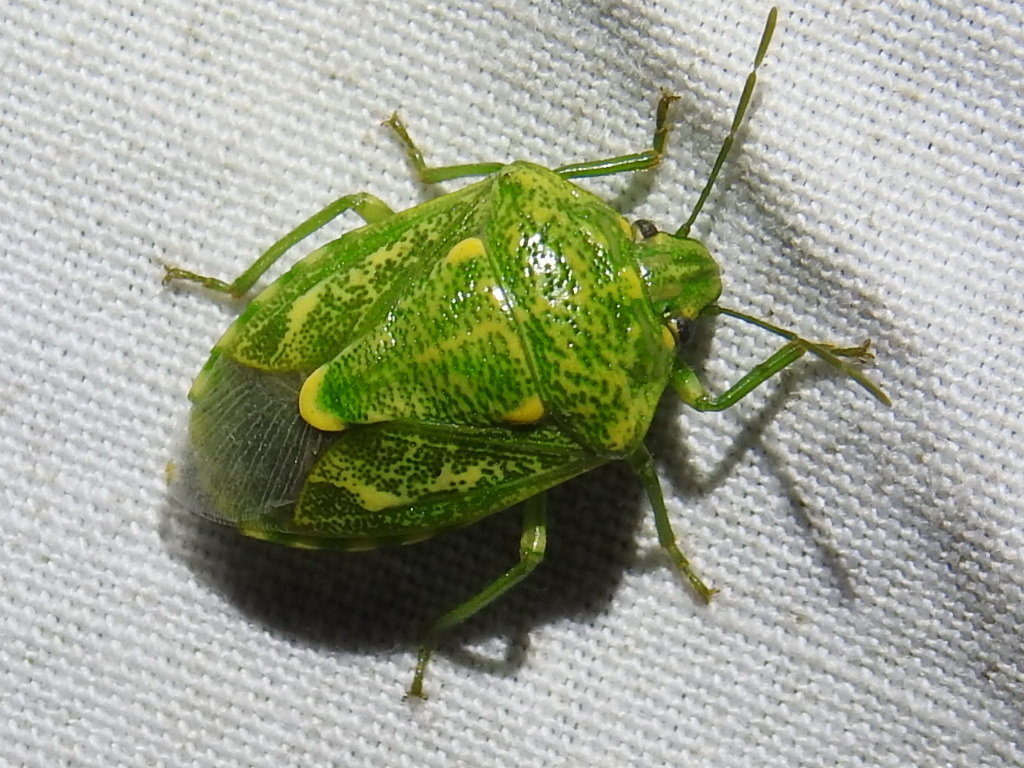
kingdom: Animalia
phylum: Arthropoda
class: Insecta
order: Hemiptera
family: Pentatomidae
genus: Banasa
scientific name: Banasa euchlora
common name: Cedar berry bug
